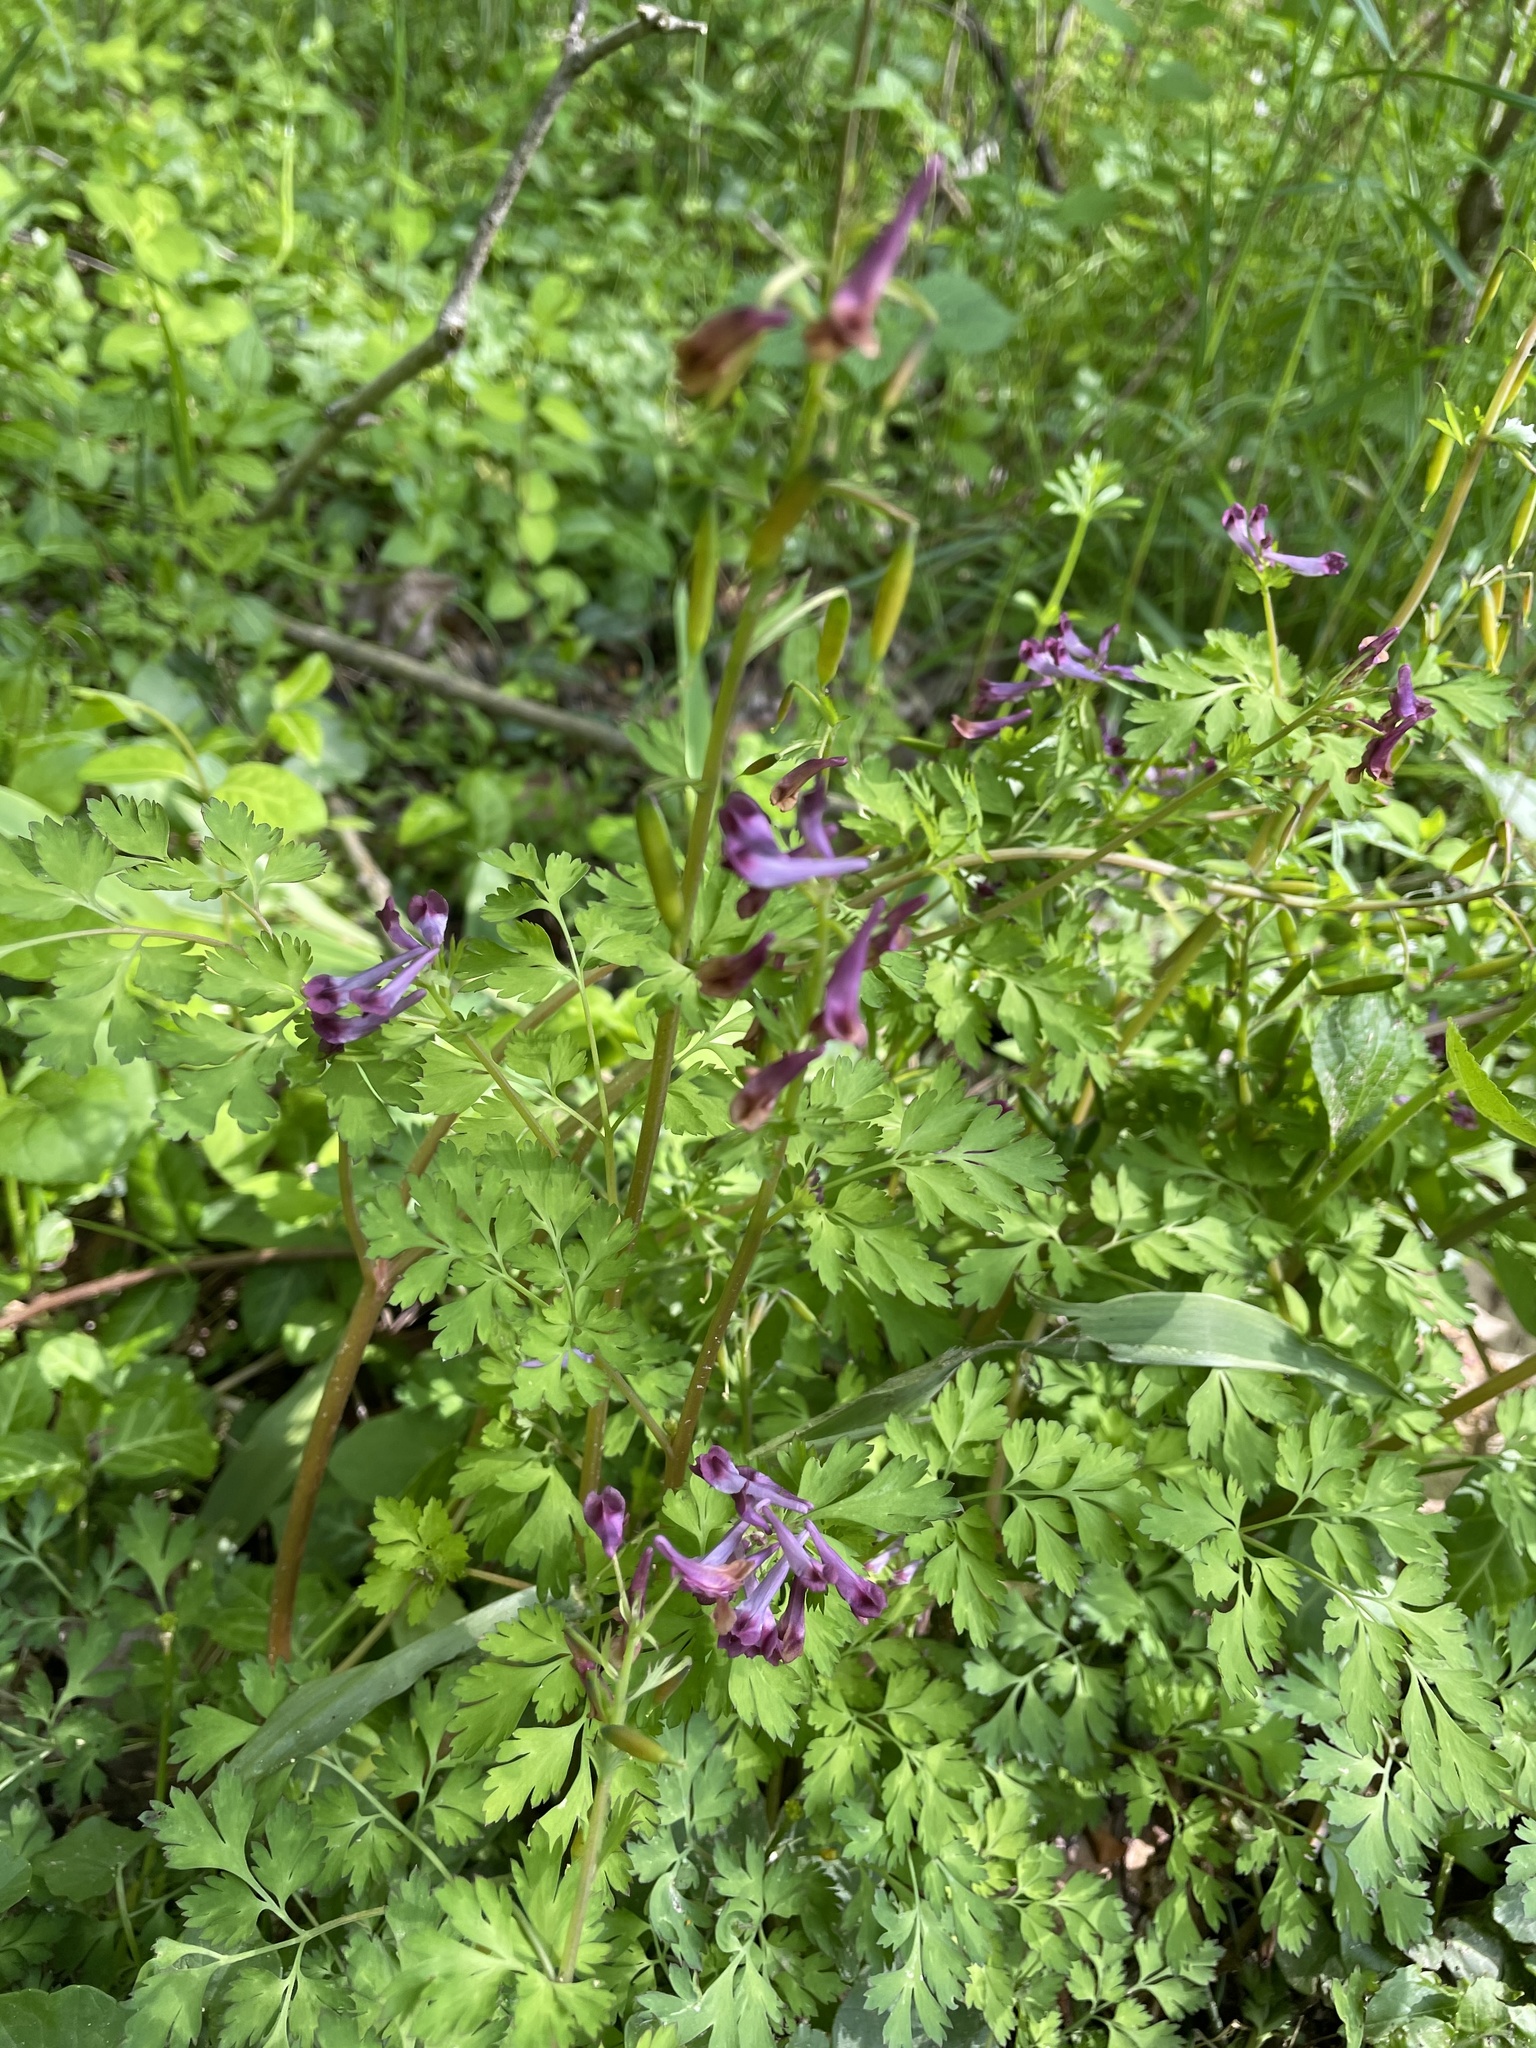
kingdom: Plantae
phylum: Tracheophyta
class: Magnoliopsida
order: Ranunculales
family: Papaveraceae
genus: Corydalis
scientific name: Corydalis incisa
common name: Incised fumewort
